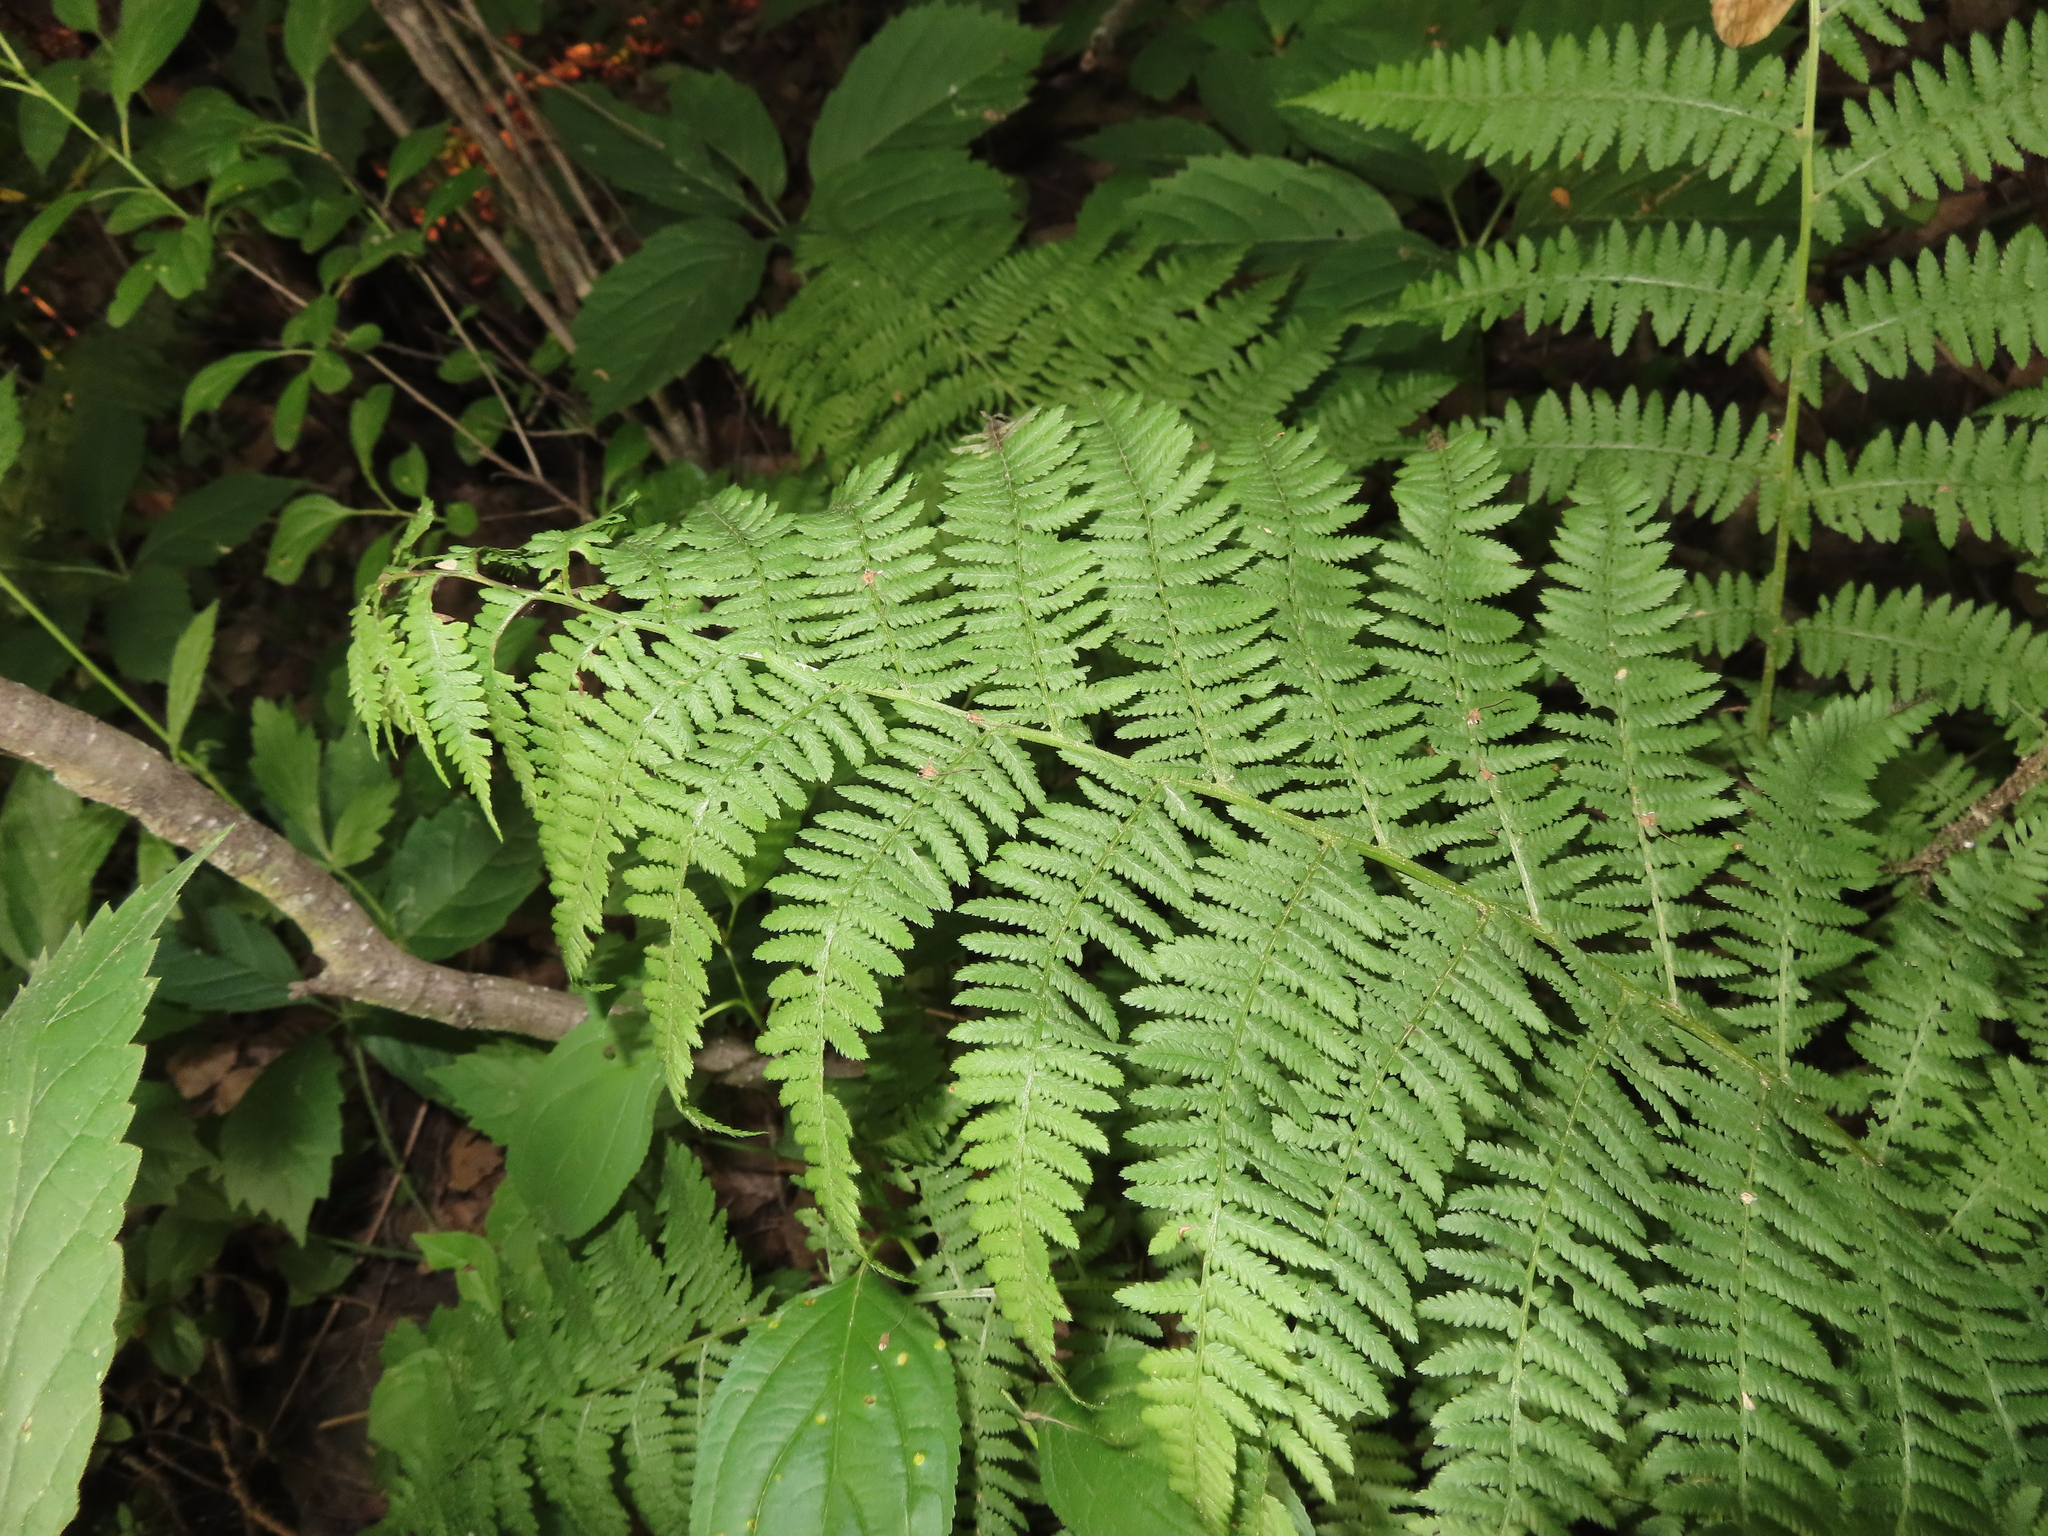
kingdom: Plantae
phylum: Tracheophyta
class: Polypodiopsida
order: Polypodiales
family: Athyriaceae
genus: Athyrium
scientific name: Athyrium angustum
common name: Northern lady fern
